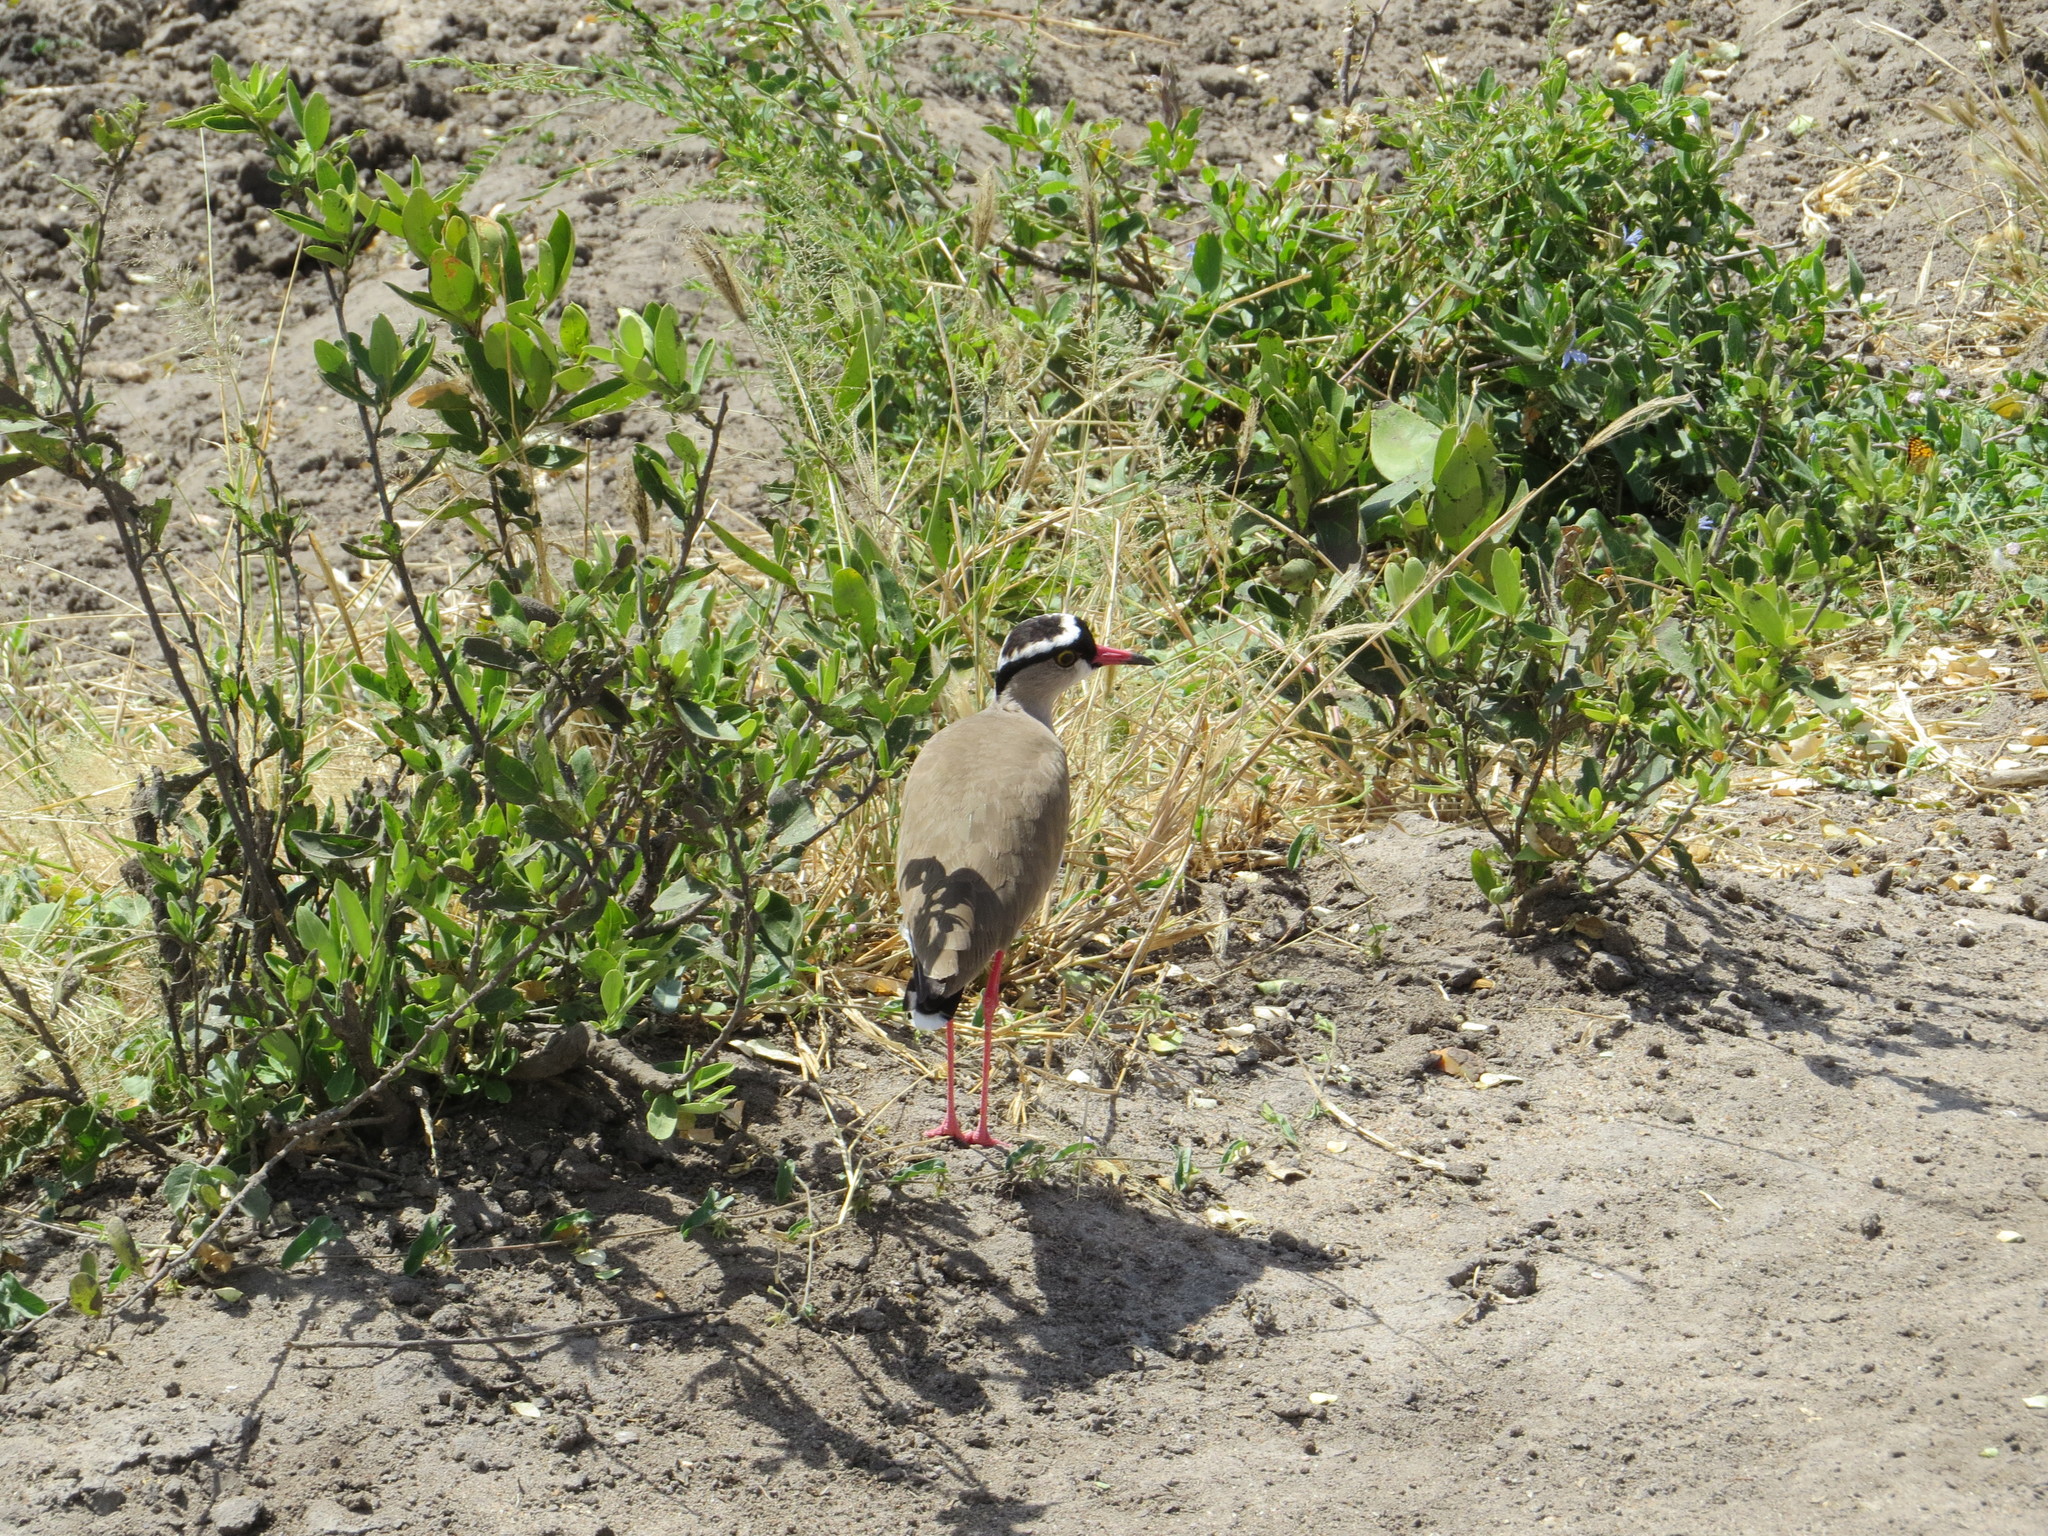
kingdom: Animalia
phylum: Chordata
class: Aves
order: Charadriiformes
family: Charadriidae
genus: Vanellus
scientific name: Vanellus coronatus
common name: Crowned lapwing
